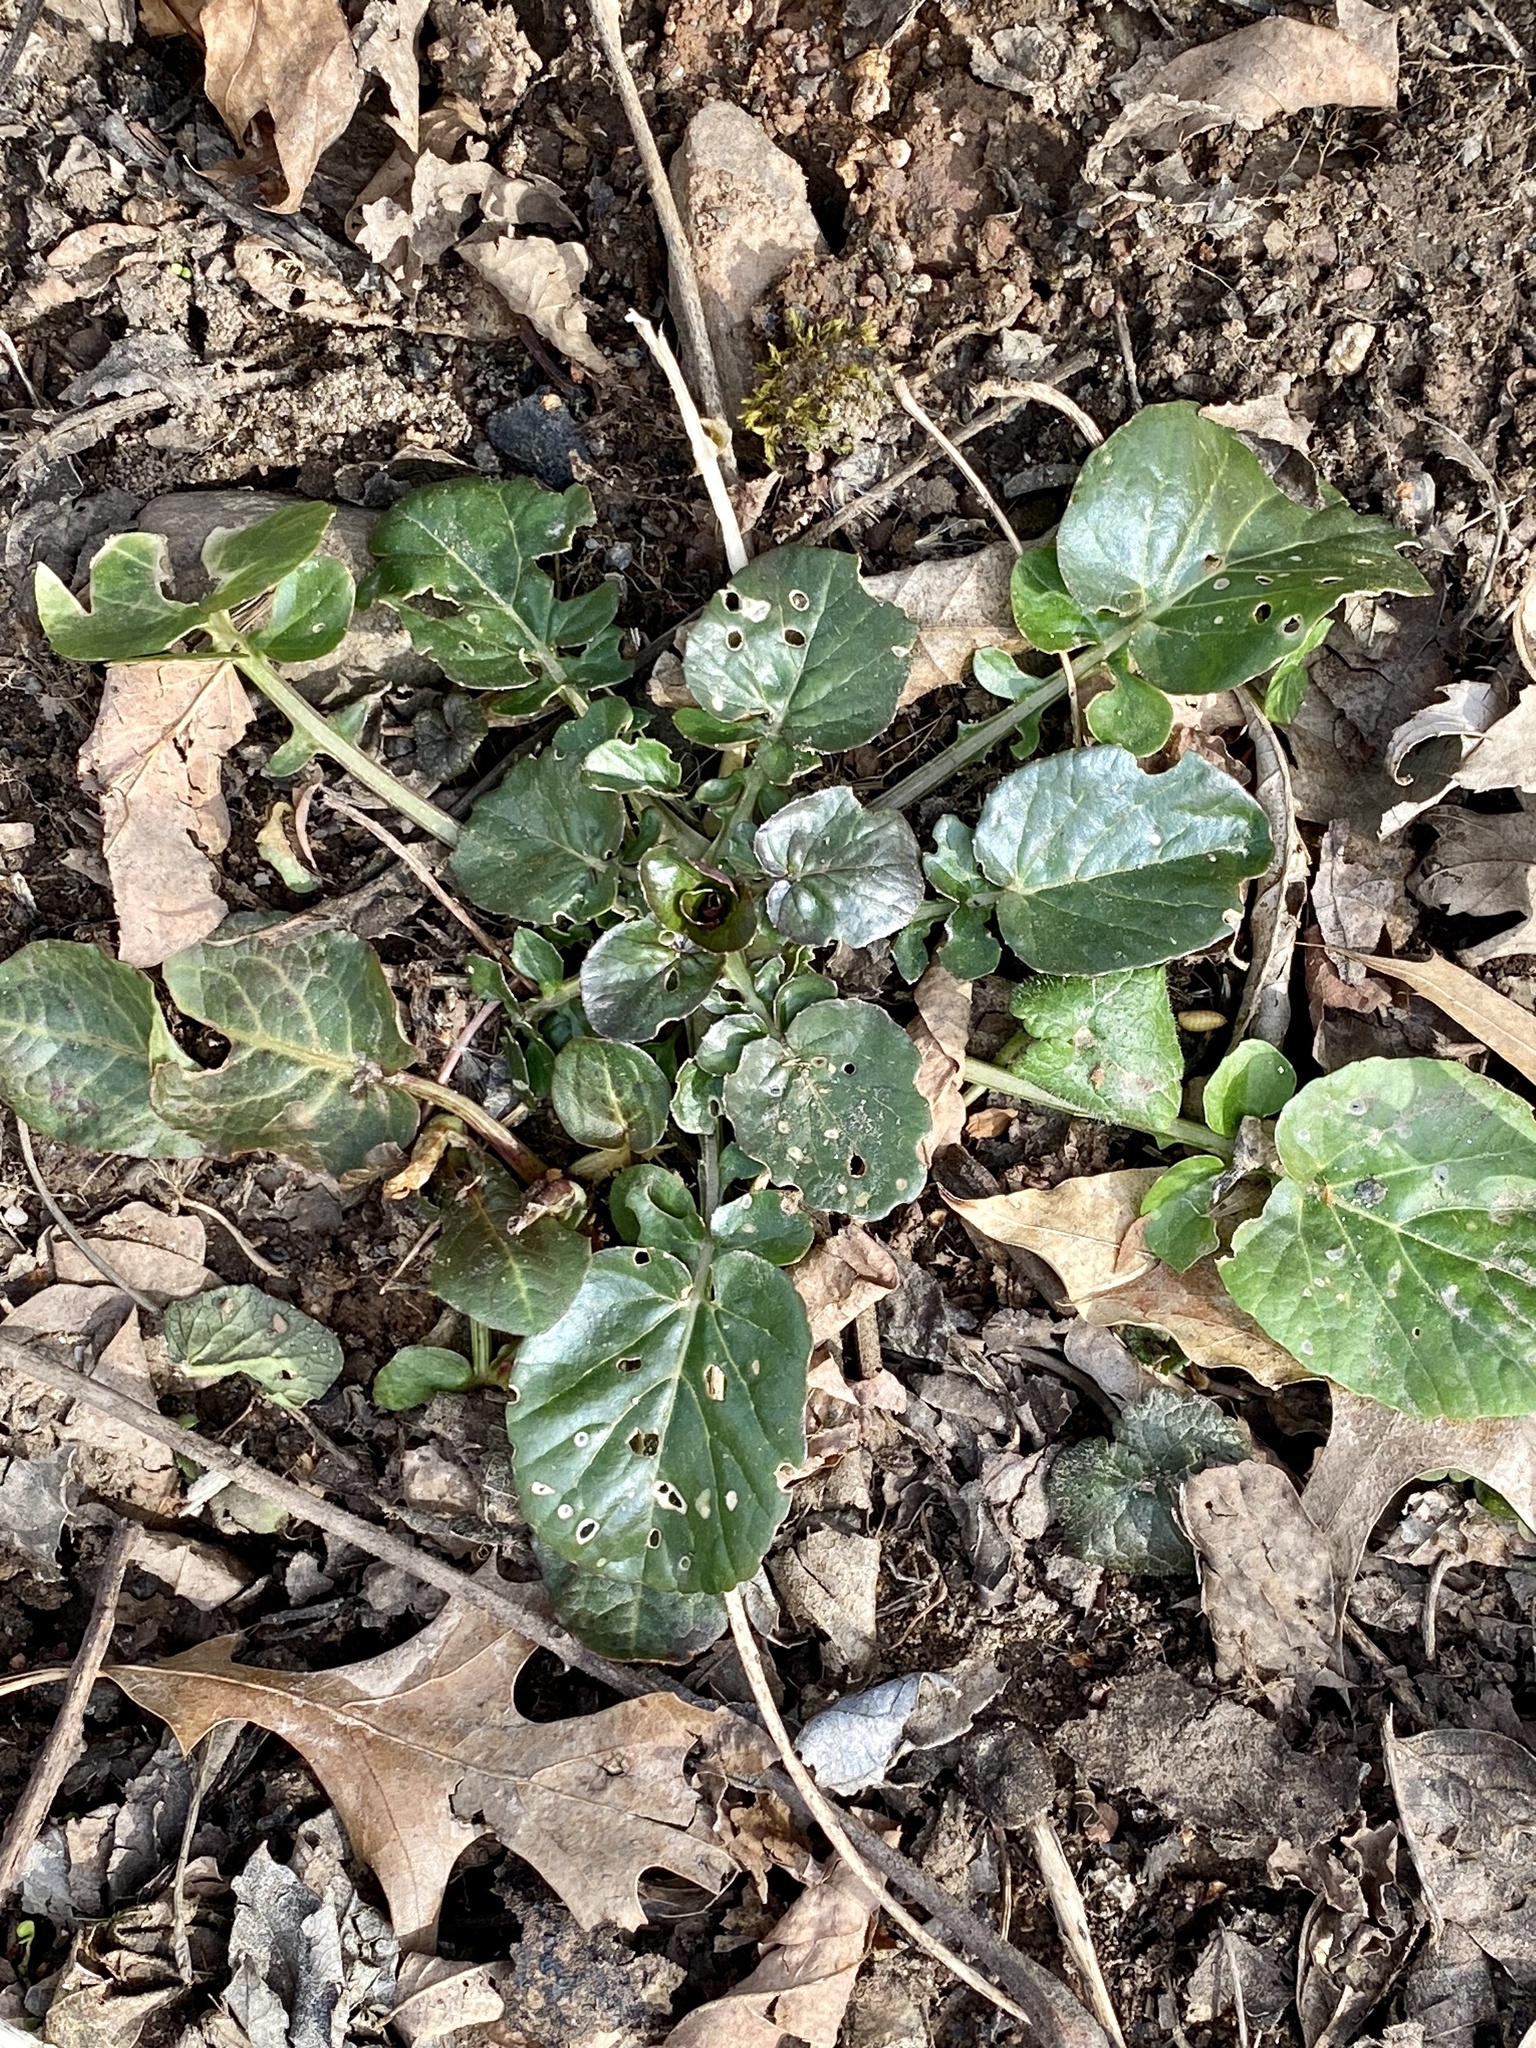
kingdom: Plantae
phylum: Tracheophyta
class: Magnoliopsida
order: Brassicales
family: Brassicaceae
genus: Barbarea
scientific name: Barbarea vulgaris
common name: Cressy-greens
